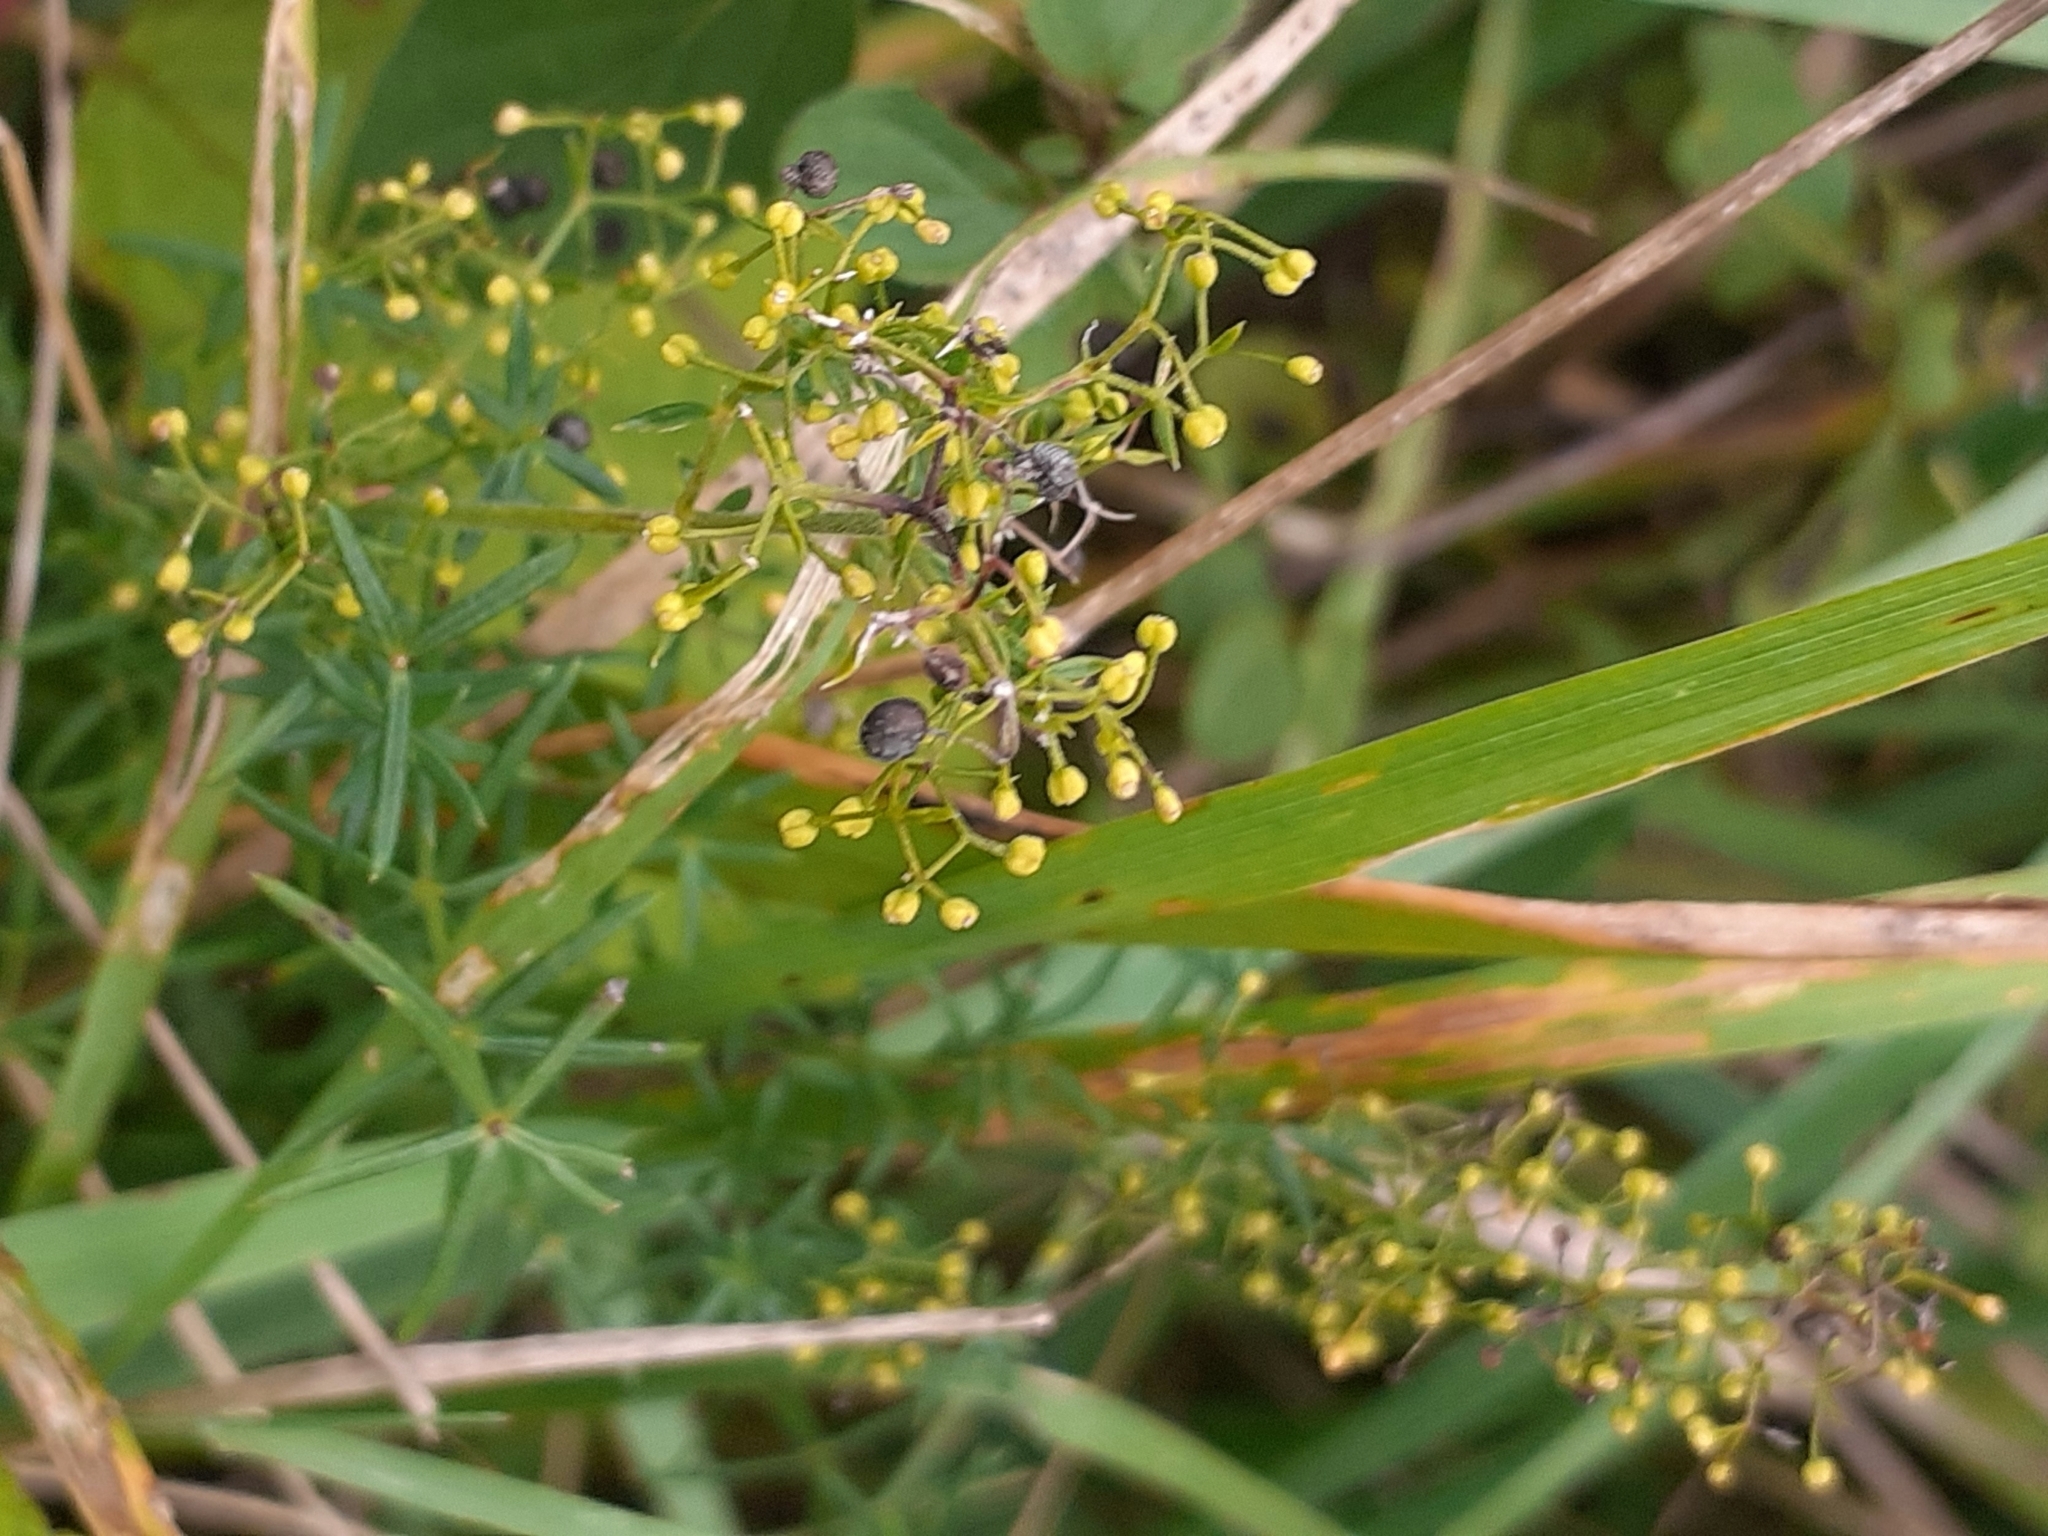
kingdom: Plantae
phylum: Tracheophyta
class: Magnoliopsida
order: Gentianales
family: Rubiaceae
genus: Galium
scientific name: Galium verum
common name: Lady's bedstraw
